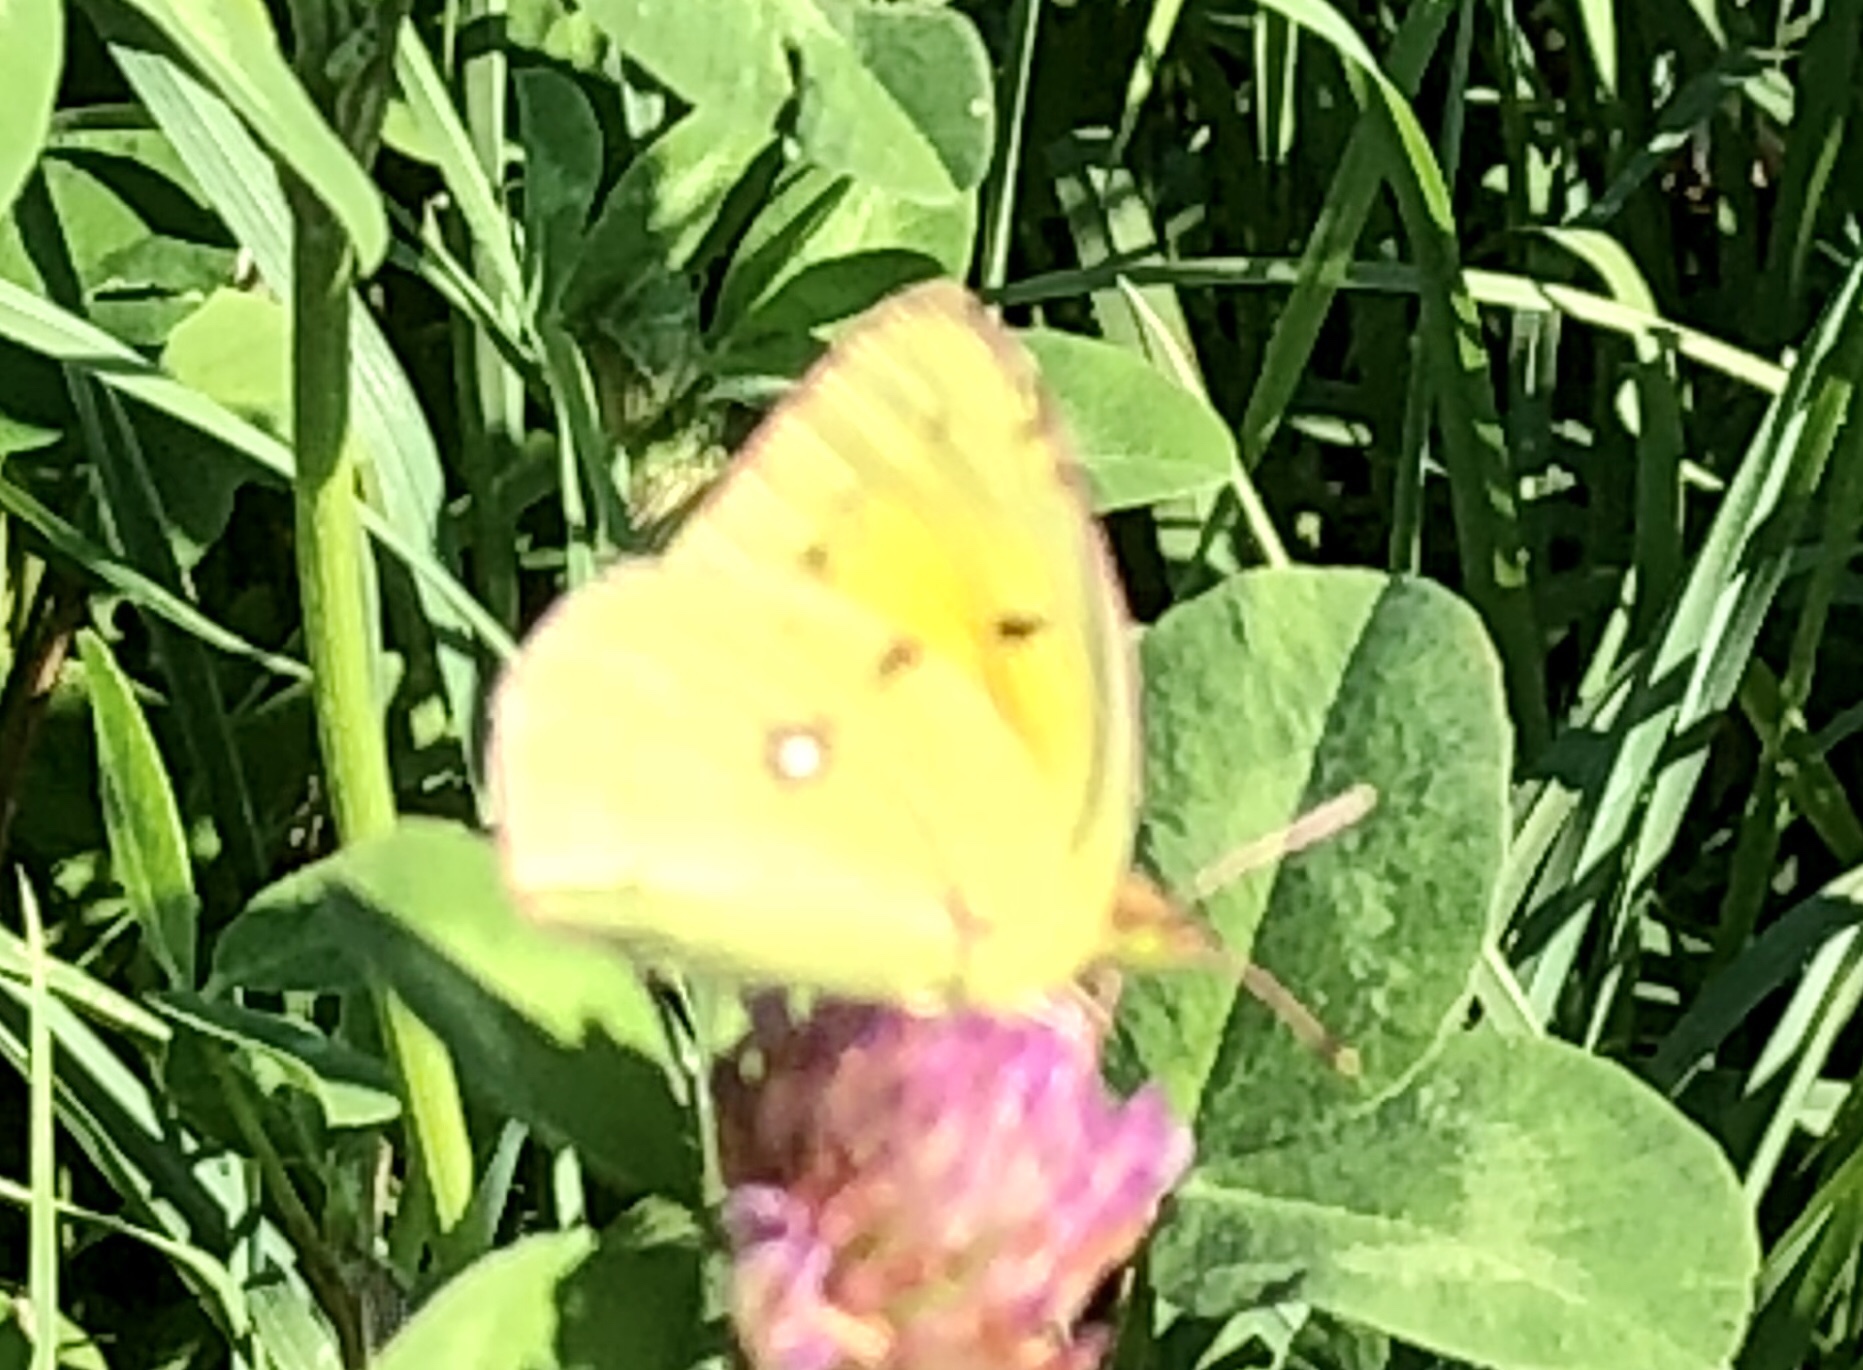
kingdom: Animalia
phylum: Arthropoda
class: Insecta
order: Lepidoptera
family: Pieridae
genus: Colias
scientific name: Colias croceus
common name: Clouded yellow
